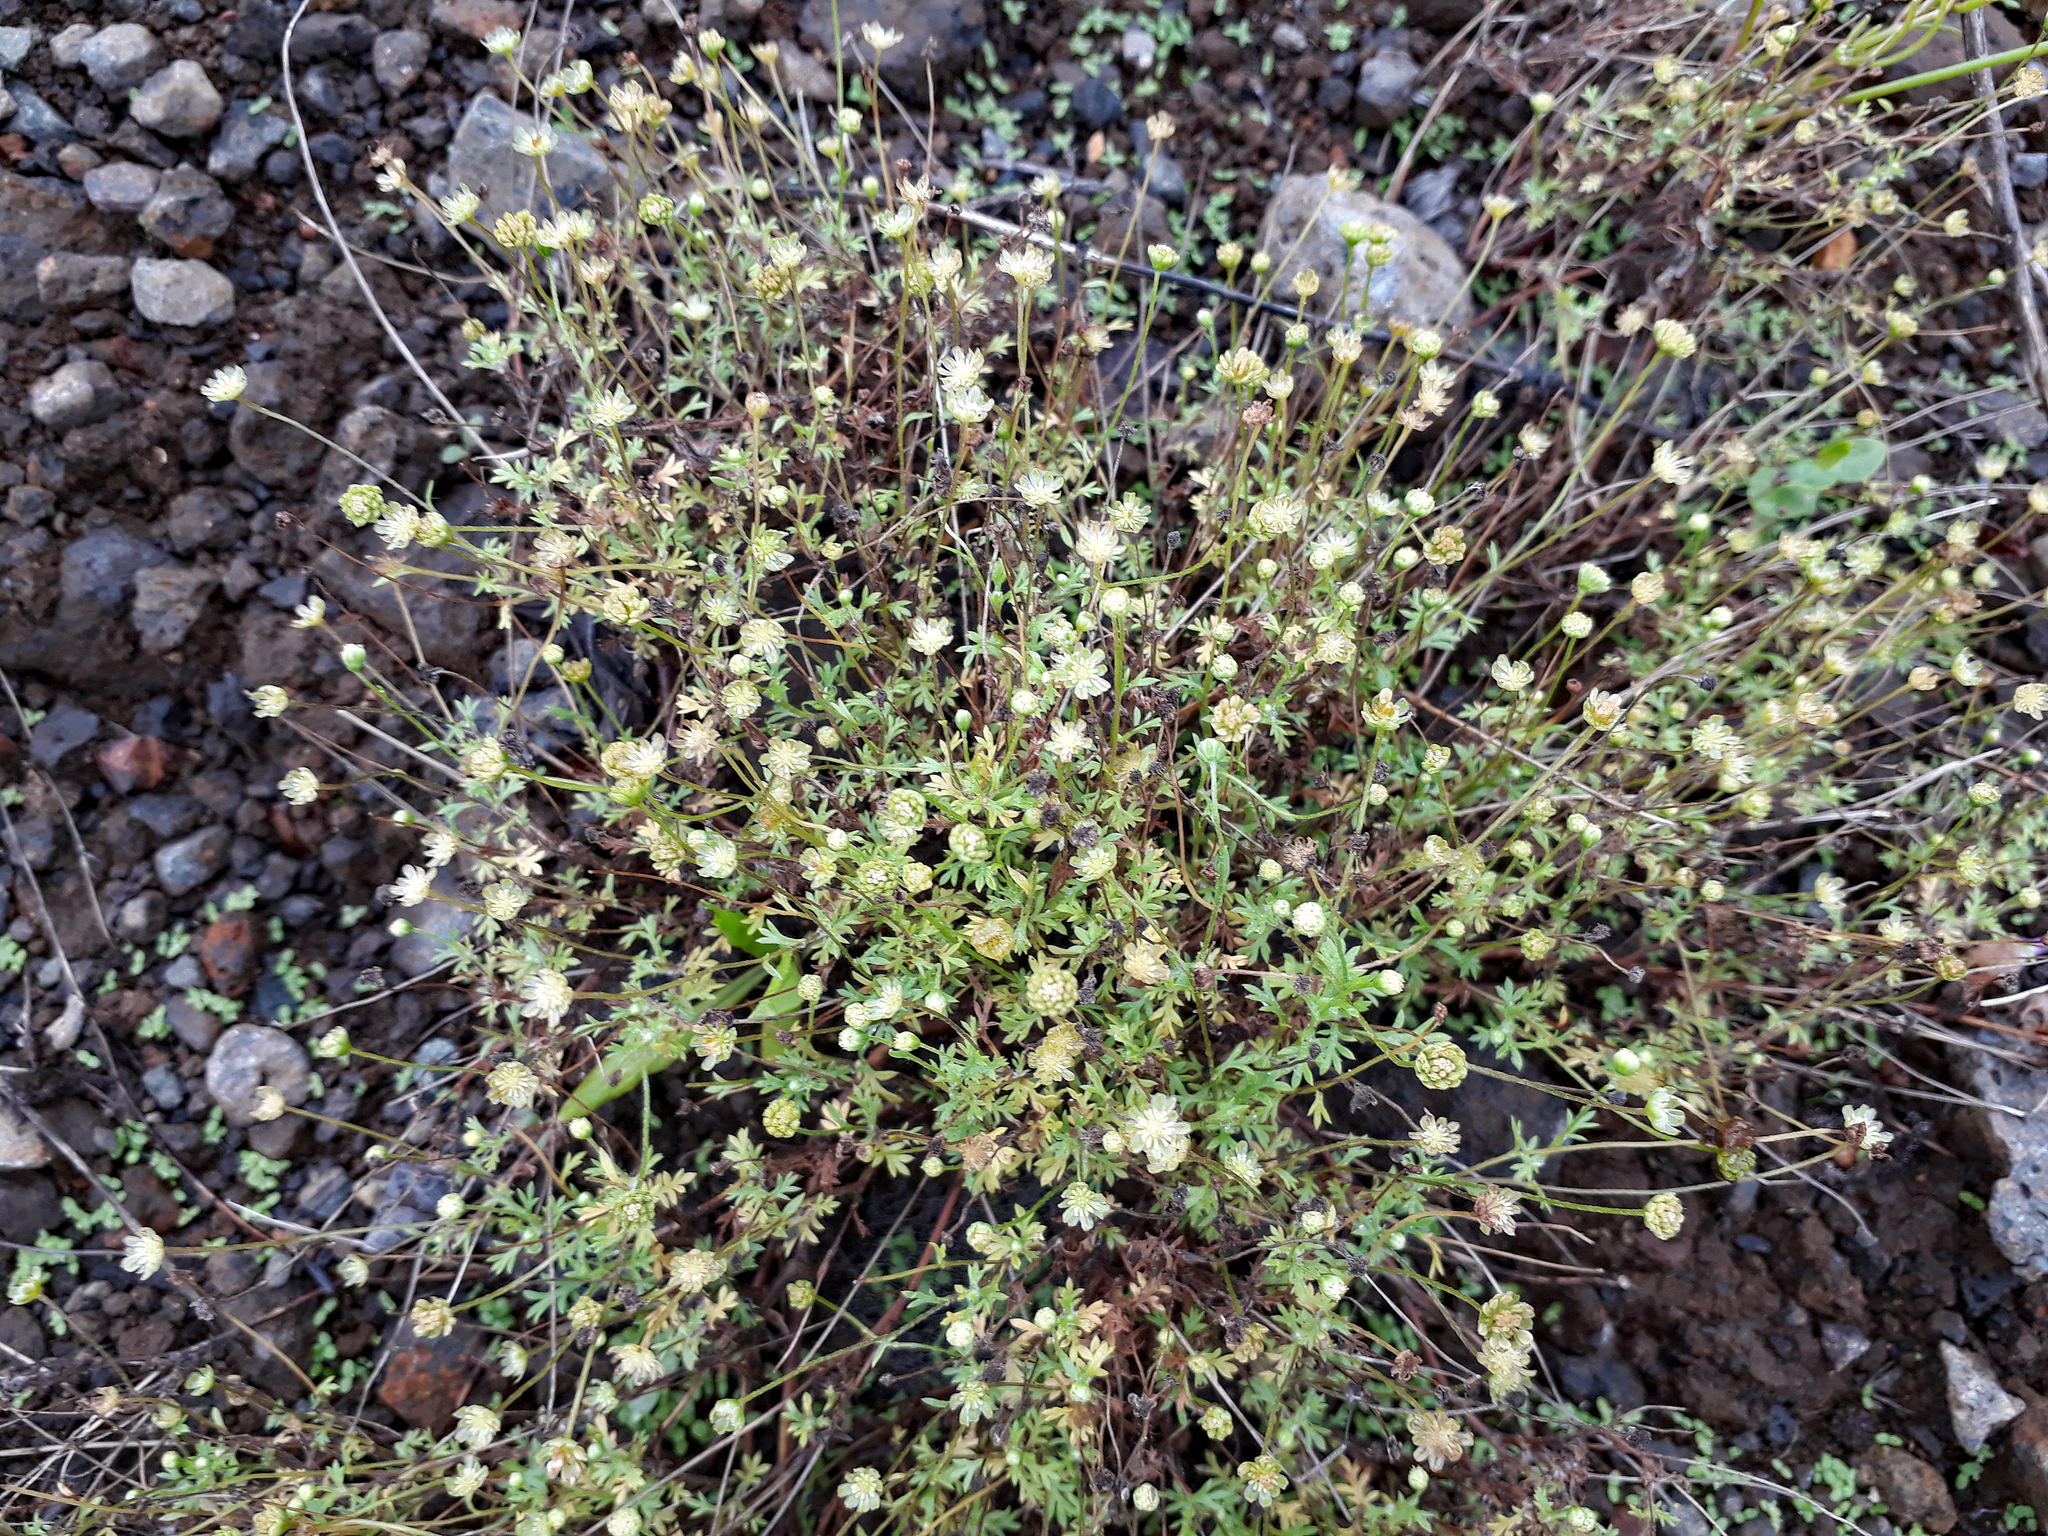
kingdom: Plantae
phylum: Tracheophyta
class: Magnoliopsida
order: Asterales
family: Asteraceae
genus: Cotula
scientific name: Cotula australis
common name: Australian waterbuttons
